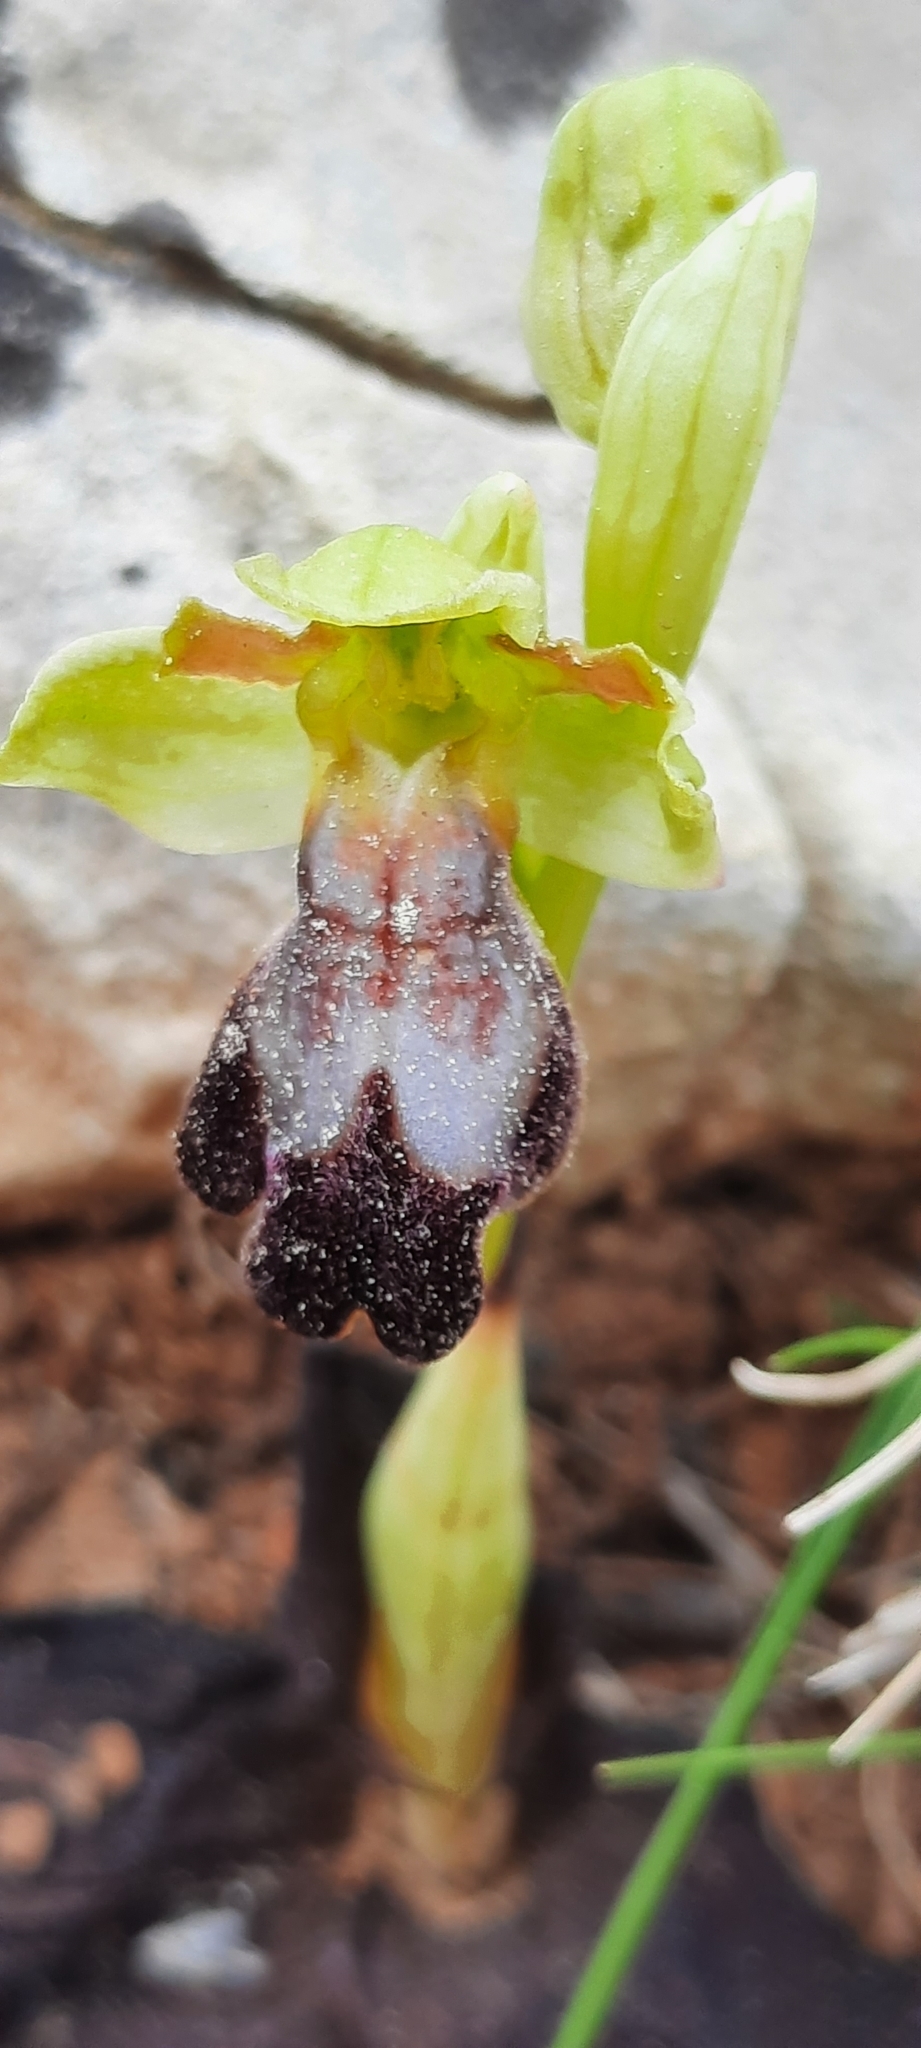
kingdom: Plantae
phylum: Tracheophyta
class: Liliopsida
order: Asparagales
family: Orchidaceae
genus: Ophrys
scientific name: Ophrys fusca
